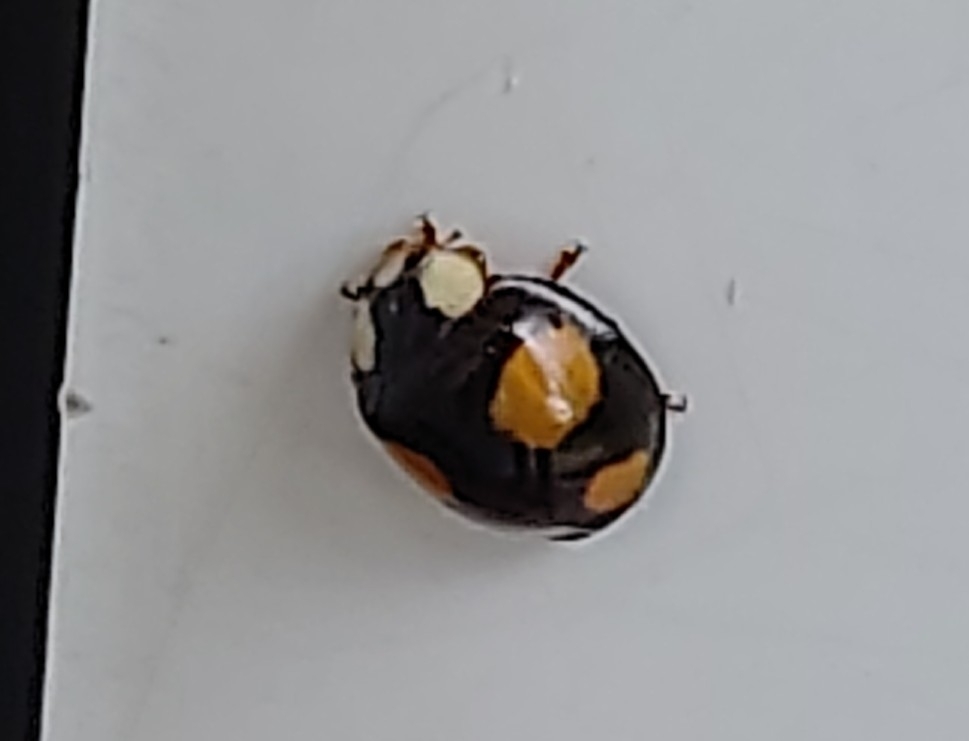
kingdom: Animalia
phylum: Arthropoda
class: Insecta
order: Coleoptera
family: Coccinellidae
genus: Harmonia
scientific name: Harmonia axyridis
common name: Harlequin ladybird
